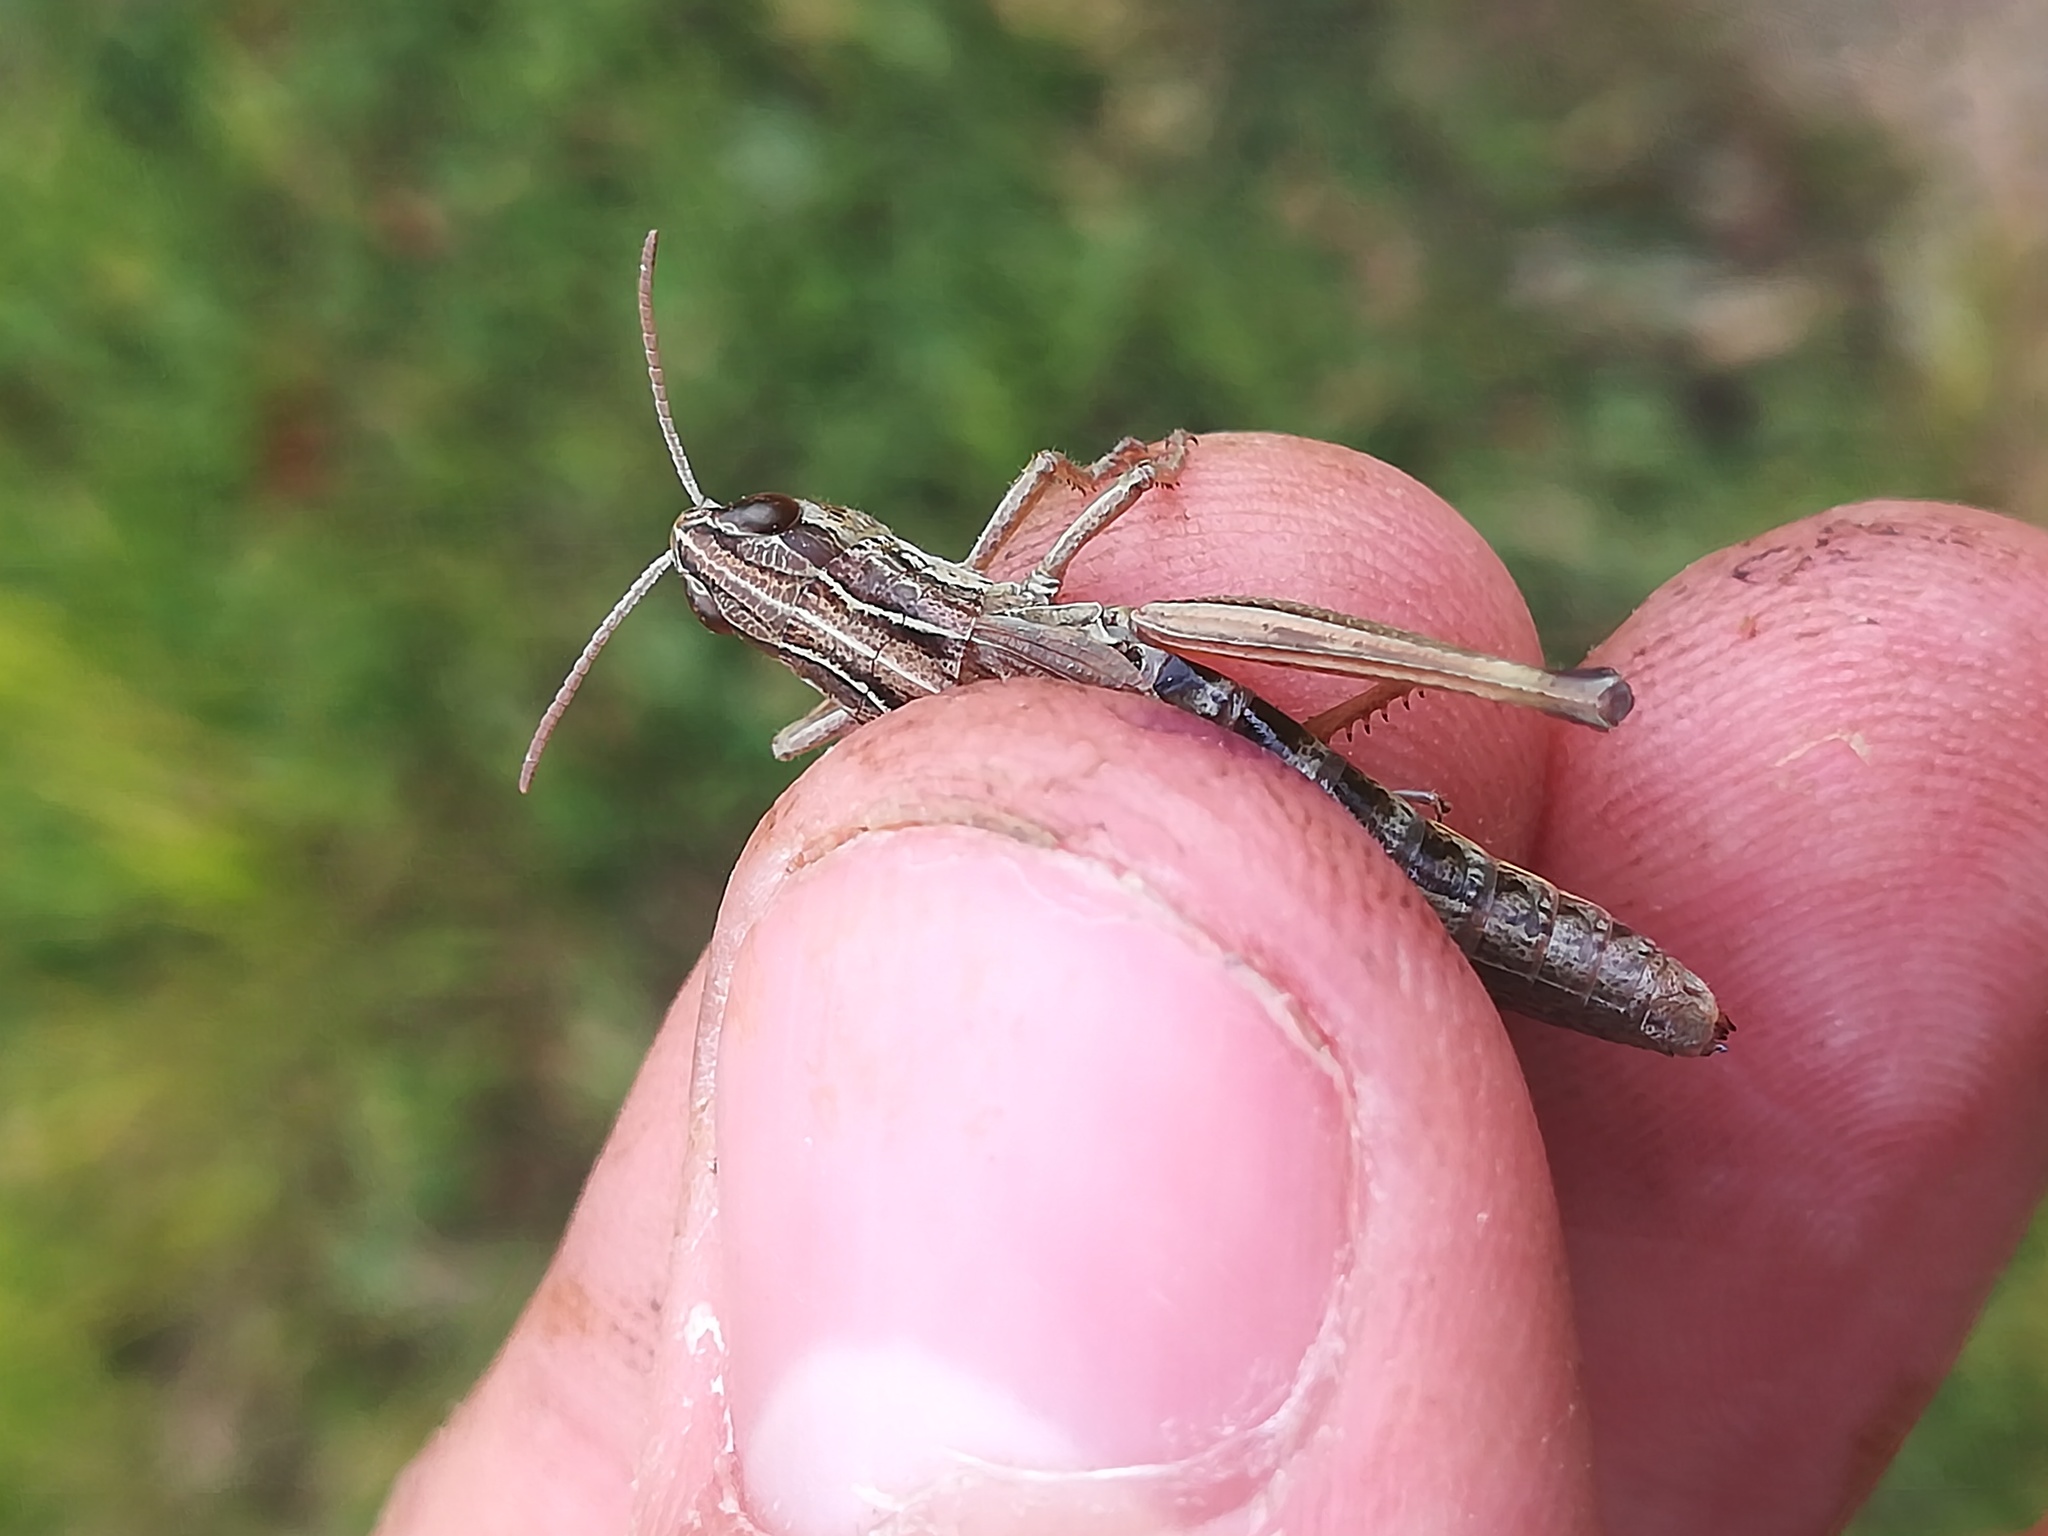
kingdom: Animalia
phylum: Arthropoda
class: Insecta
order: Orthoptera
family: Acrididae
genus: Pseudochorthippus
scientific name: Pseudochorthippus parallelus
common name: Meadow grasshopper
